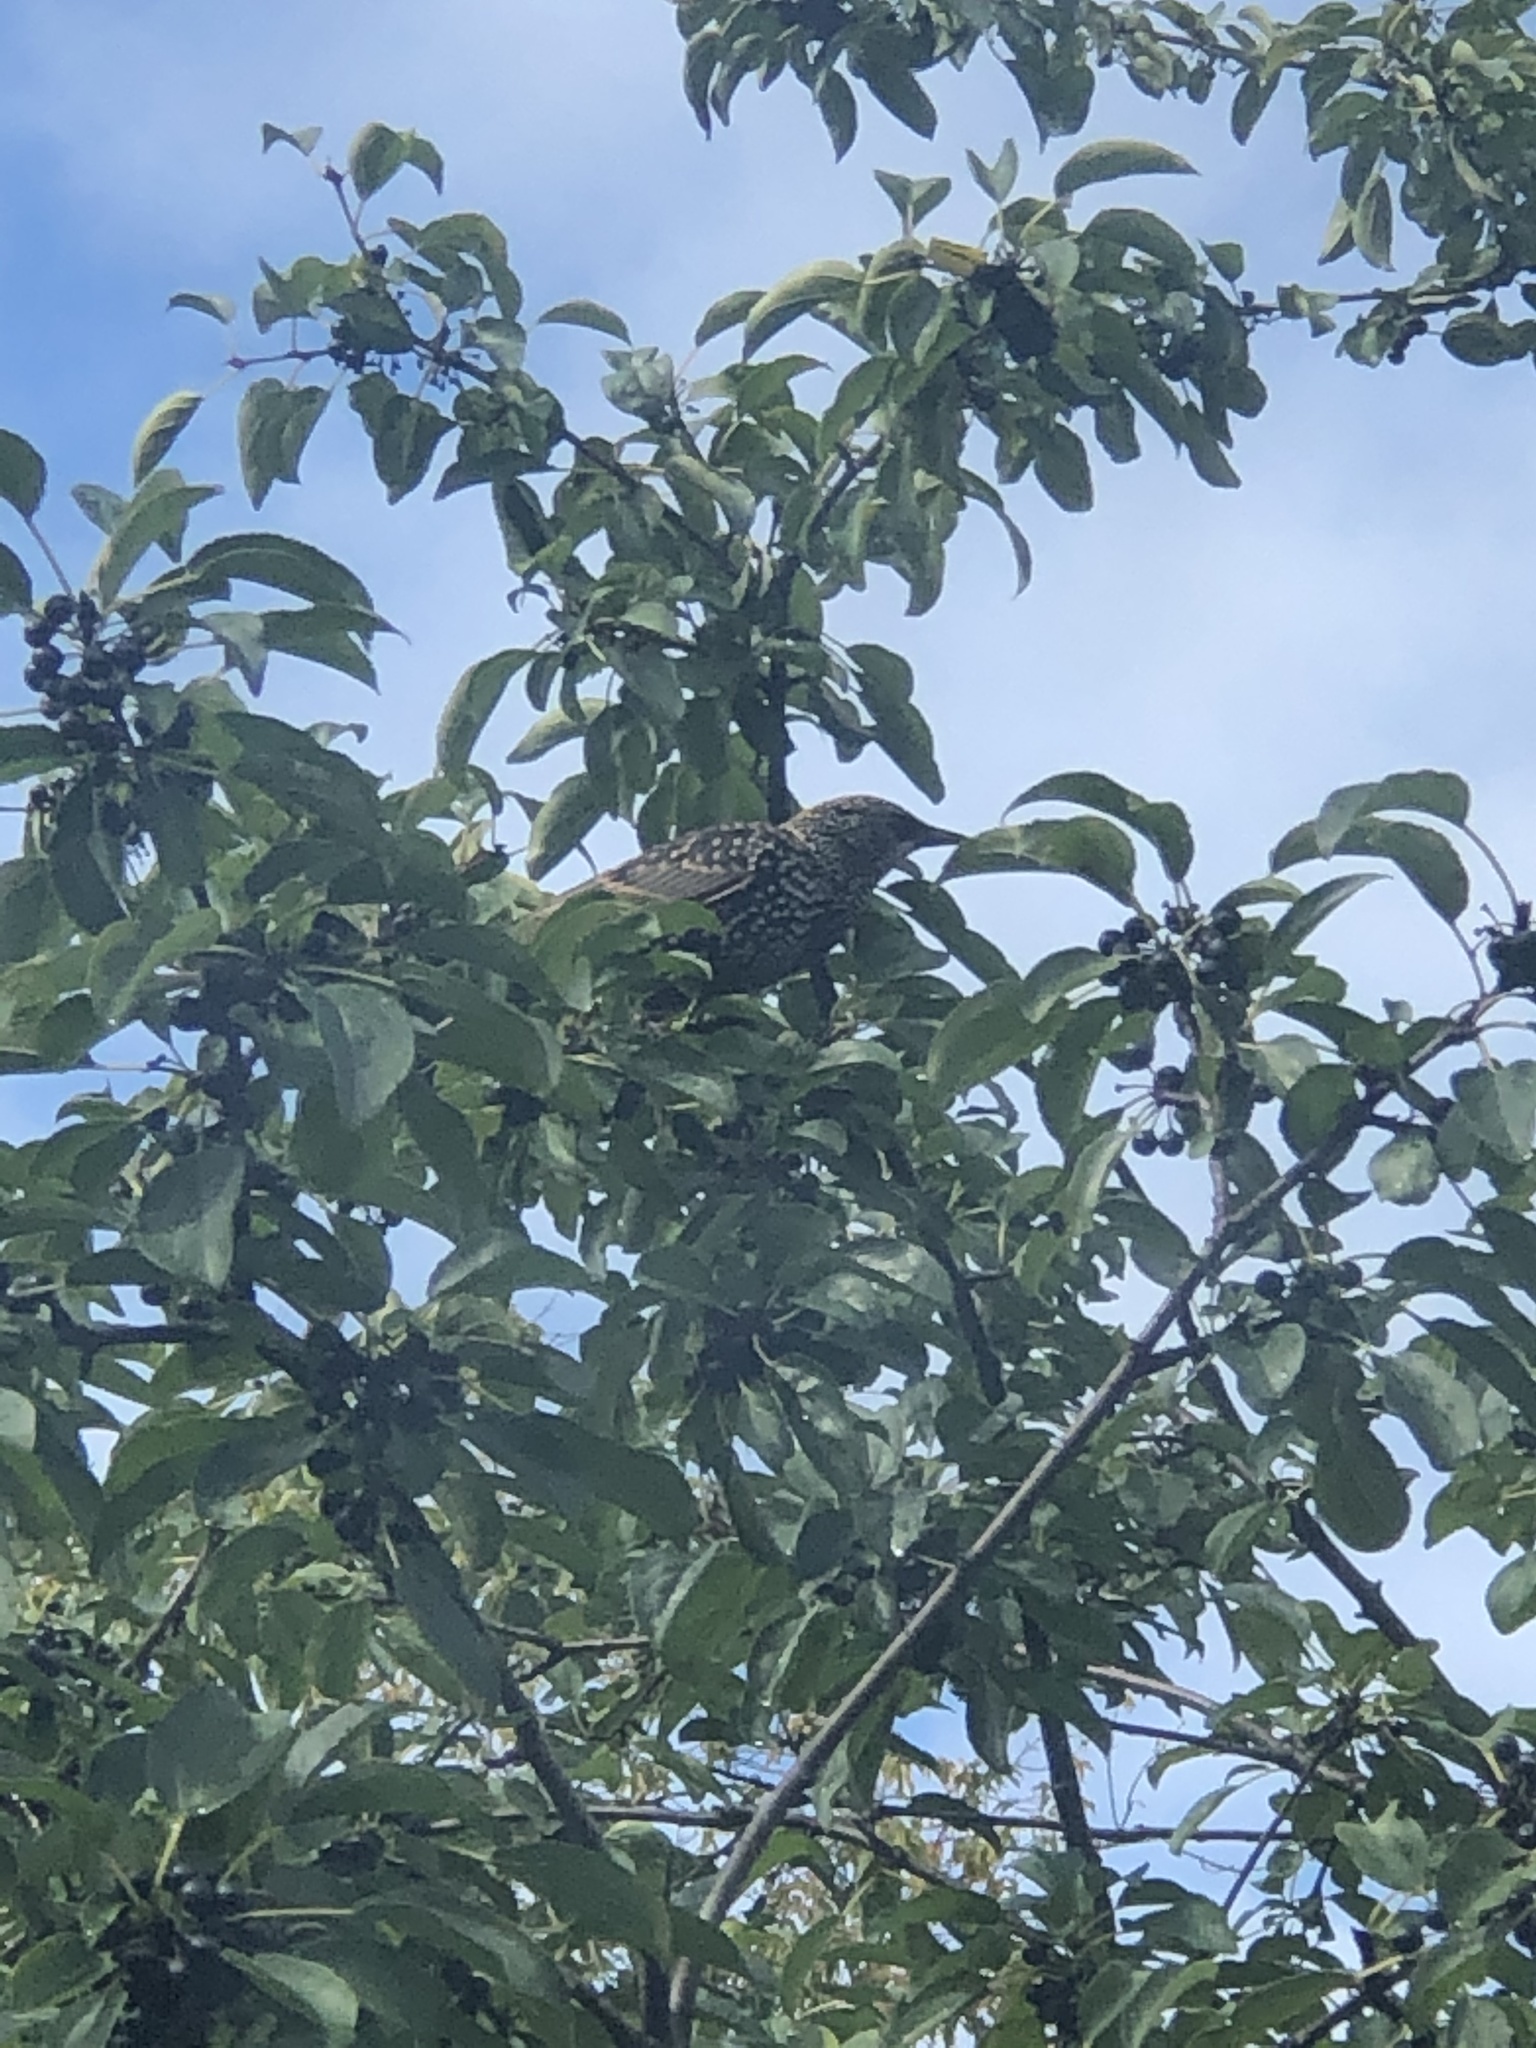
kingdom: Animalia
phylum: Chordata
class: Aves
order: Passeriformes
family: Sturnidae
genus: Sturnus
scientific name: Sturnus vulgaris
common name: Common starling
